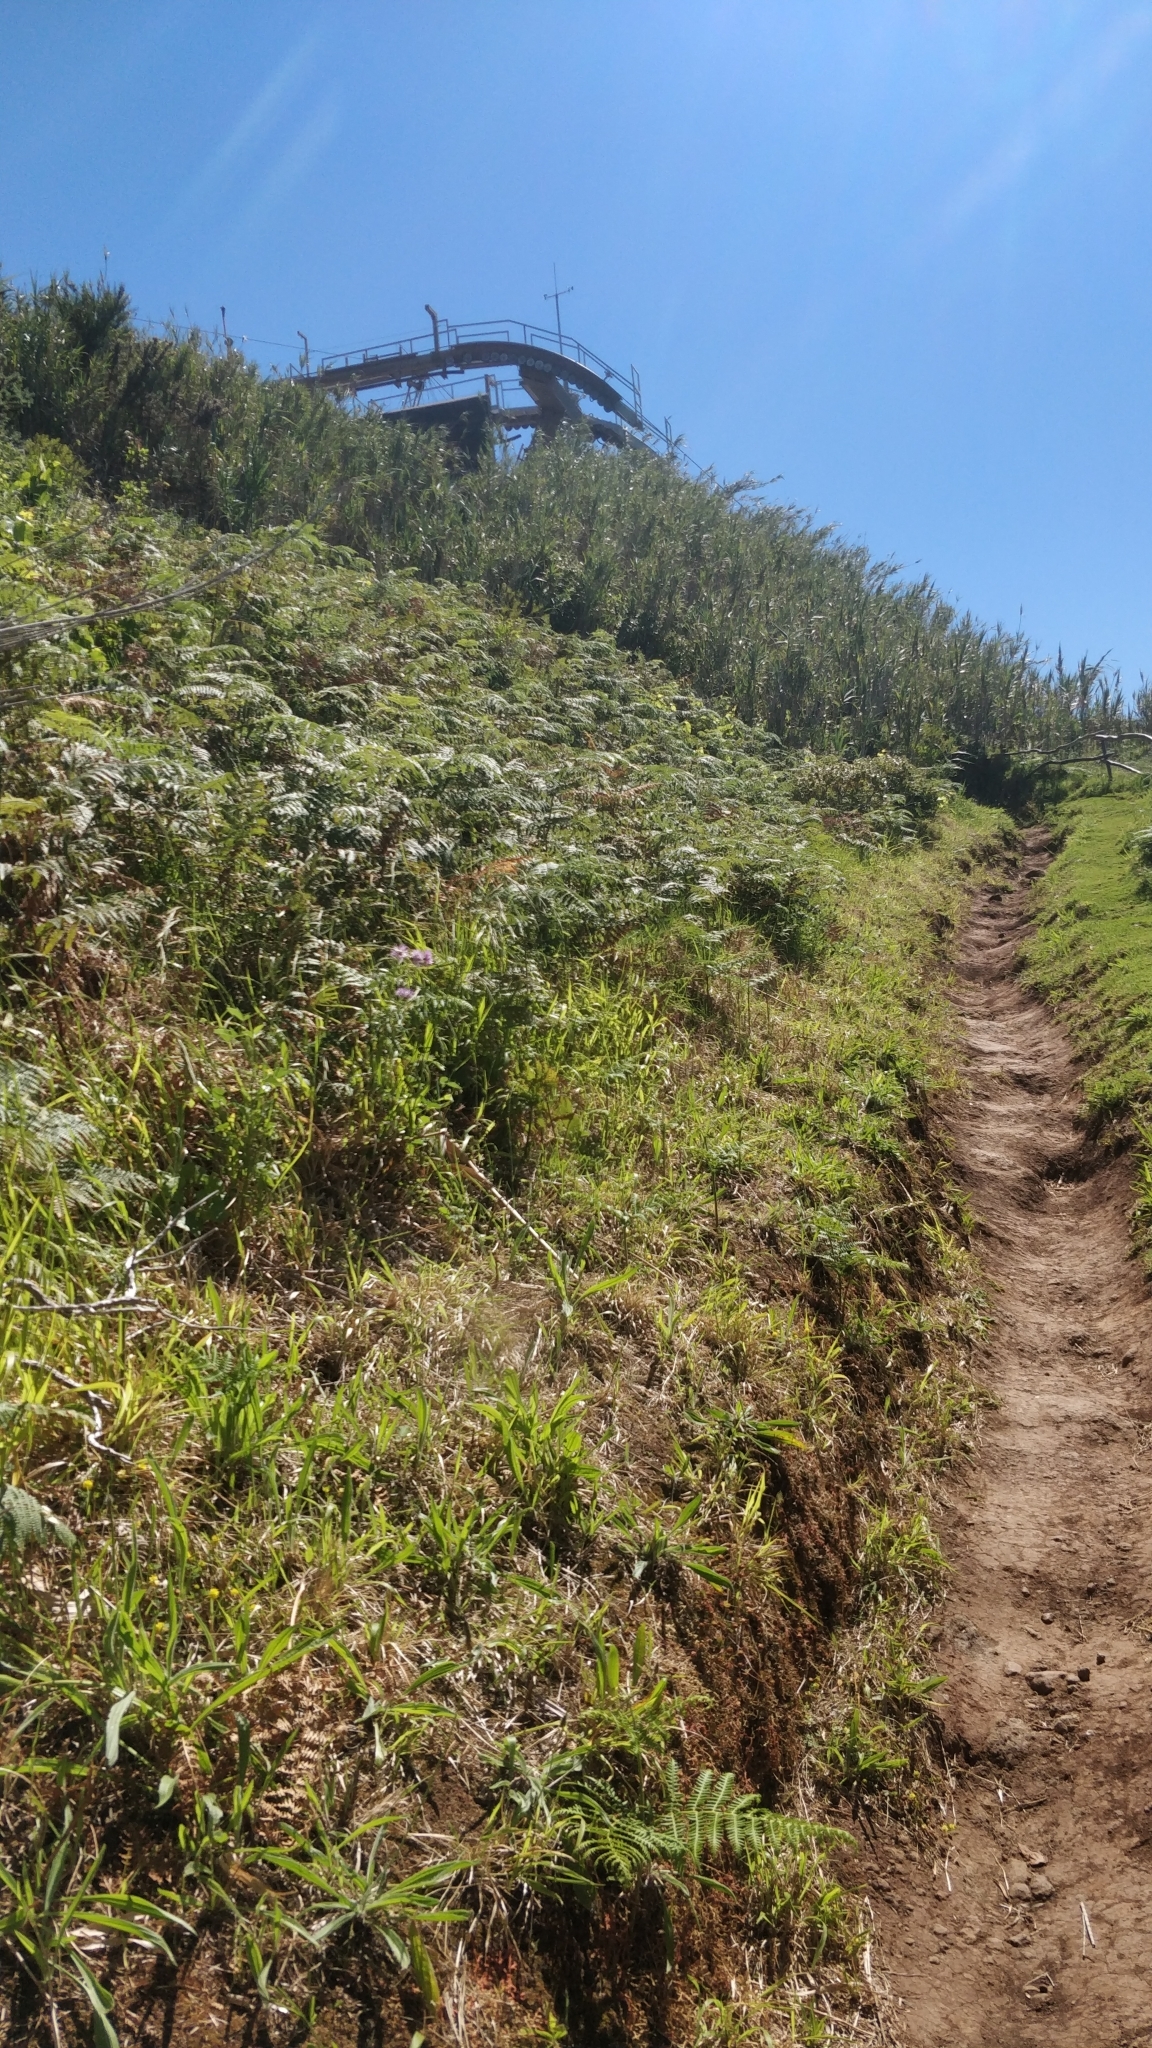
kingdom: Plantae
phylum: Tracheophyta
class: Polypodiopsida
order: Polypodiales
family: Dennstaedtiaceae
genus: Pteridium
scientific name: Pteridium aquilinum
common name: Bracken
